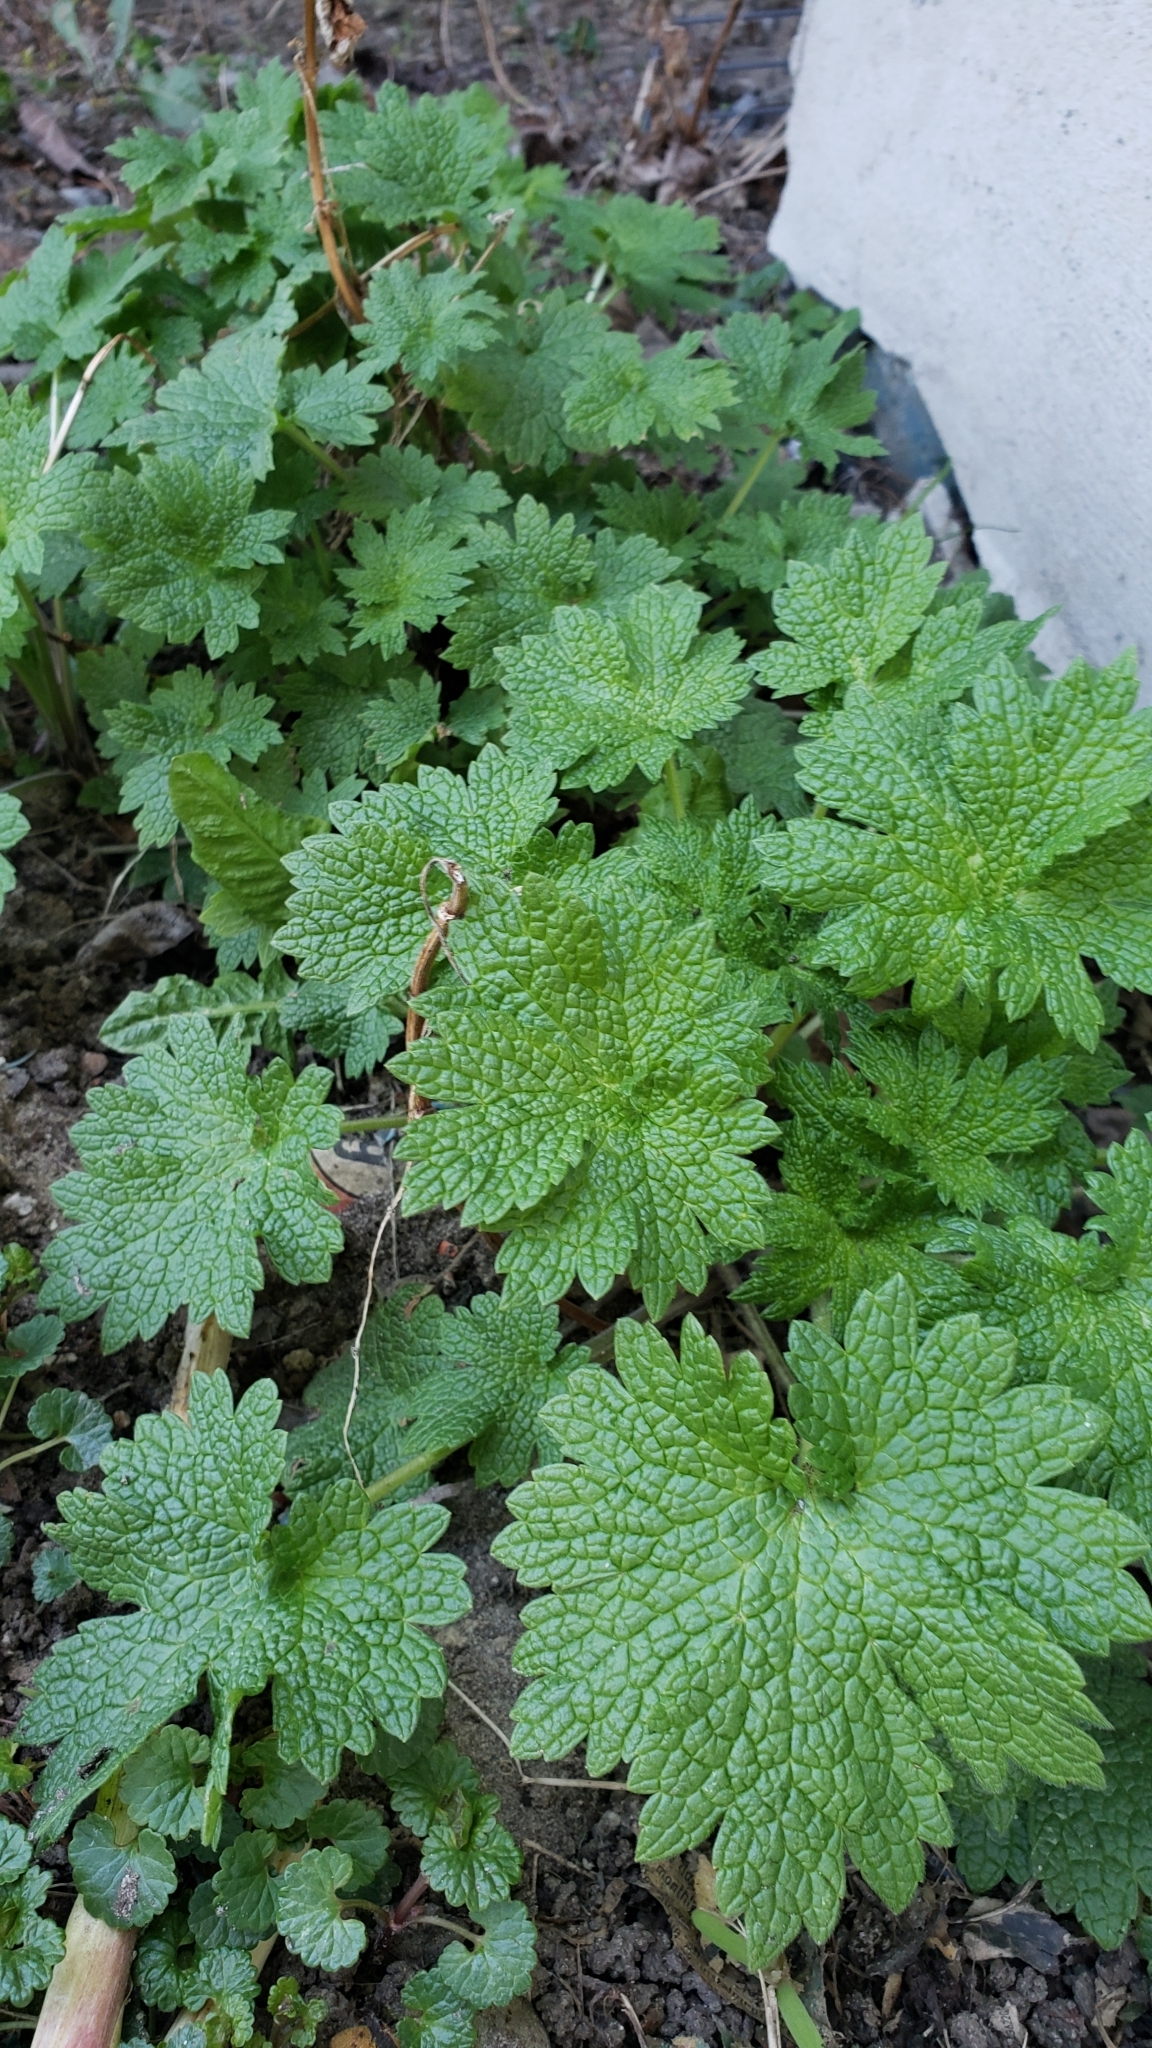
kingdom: Plantae
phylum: Tracheophyta
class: Magnoliopsida
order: Lamiales
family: Lamiaceae
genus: Leonurus
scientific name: Leonurus cardiaca
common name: Motherwort
